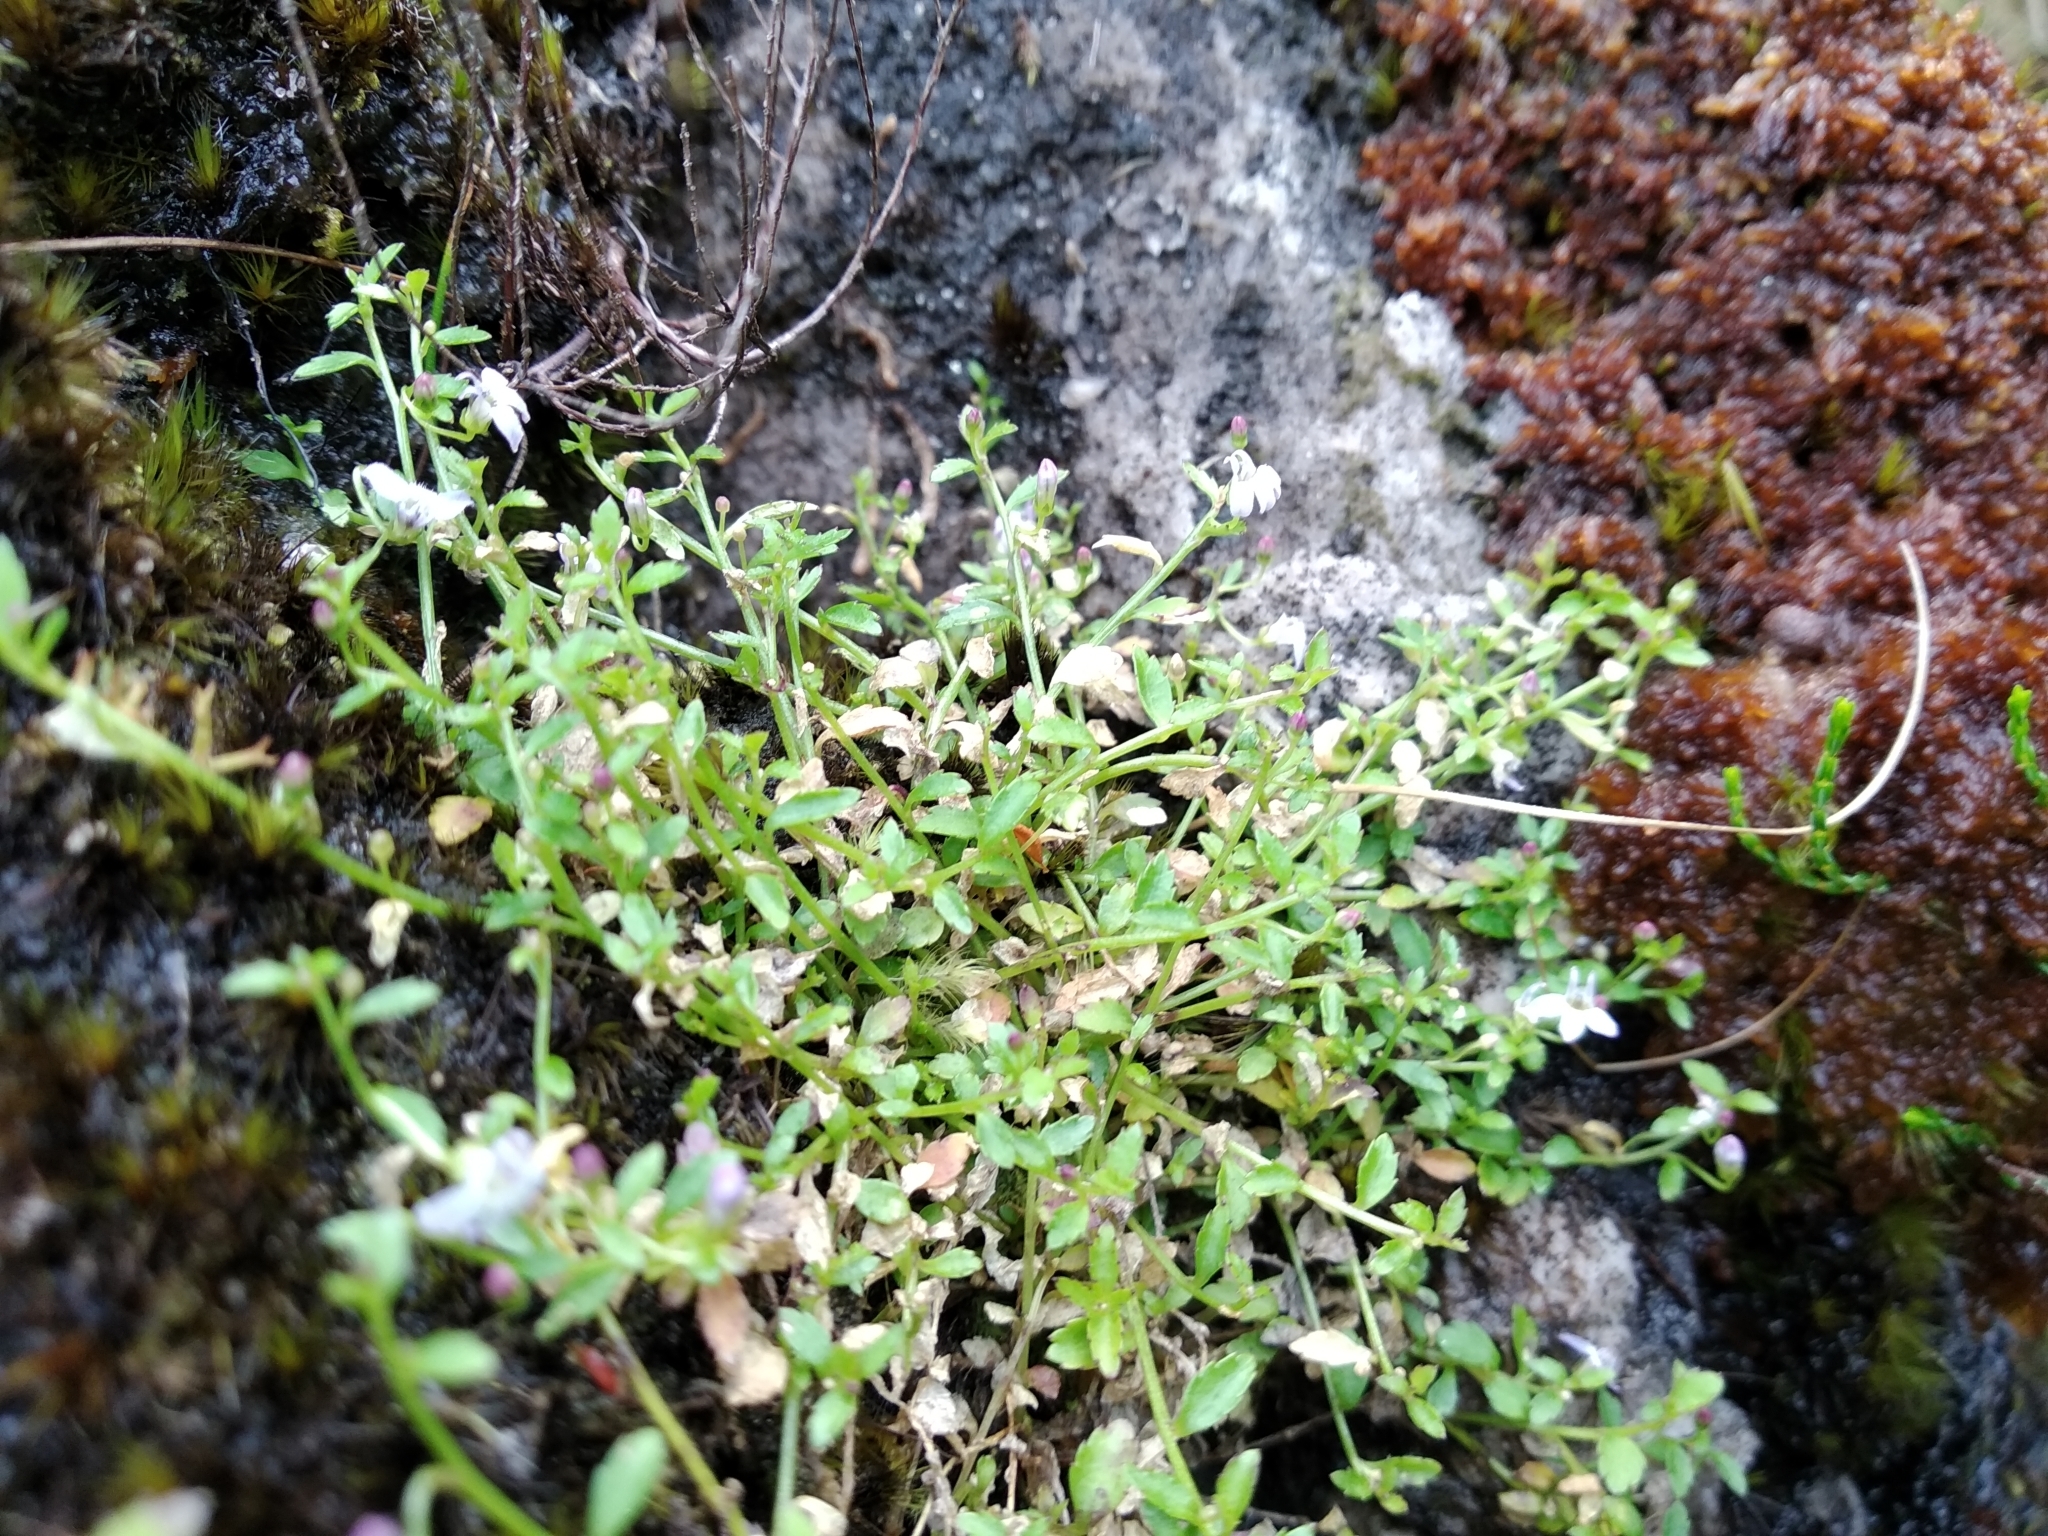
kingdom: Plantae
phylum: Tracheophyta
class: Magnoliopsida
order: Asterales
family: Campanulaceae
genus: Unigenes
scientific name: Unigenes humifusa
